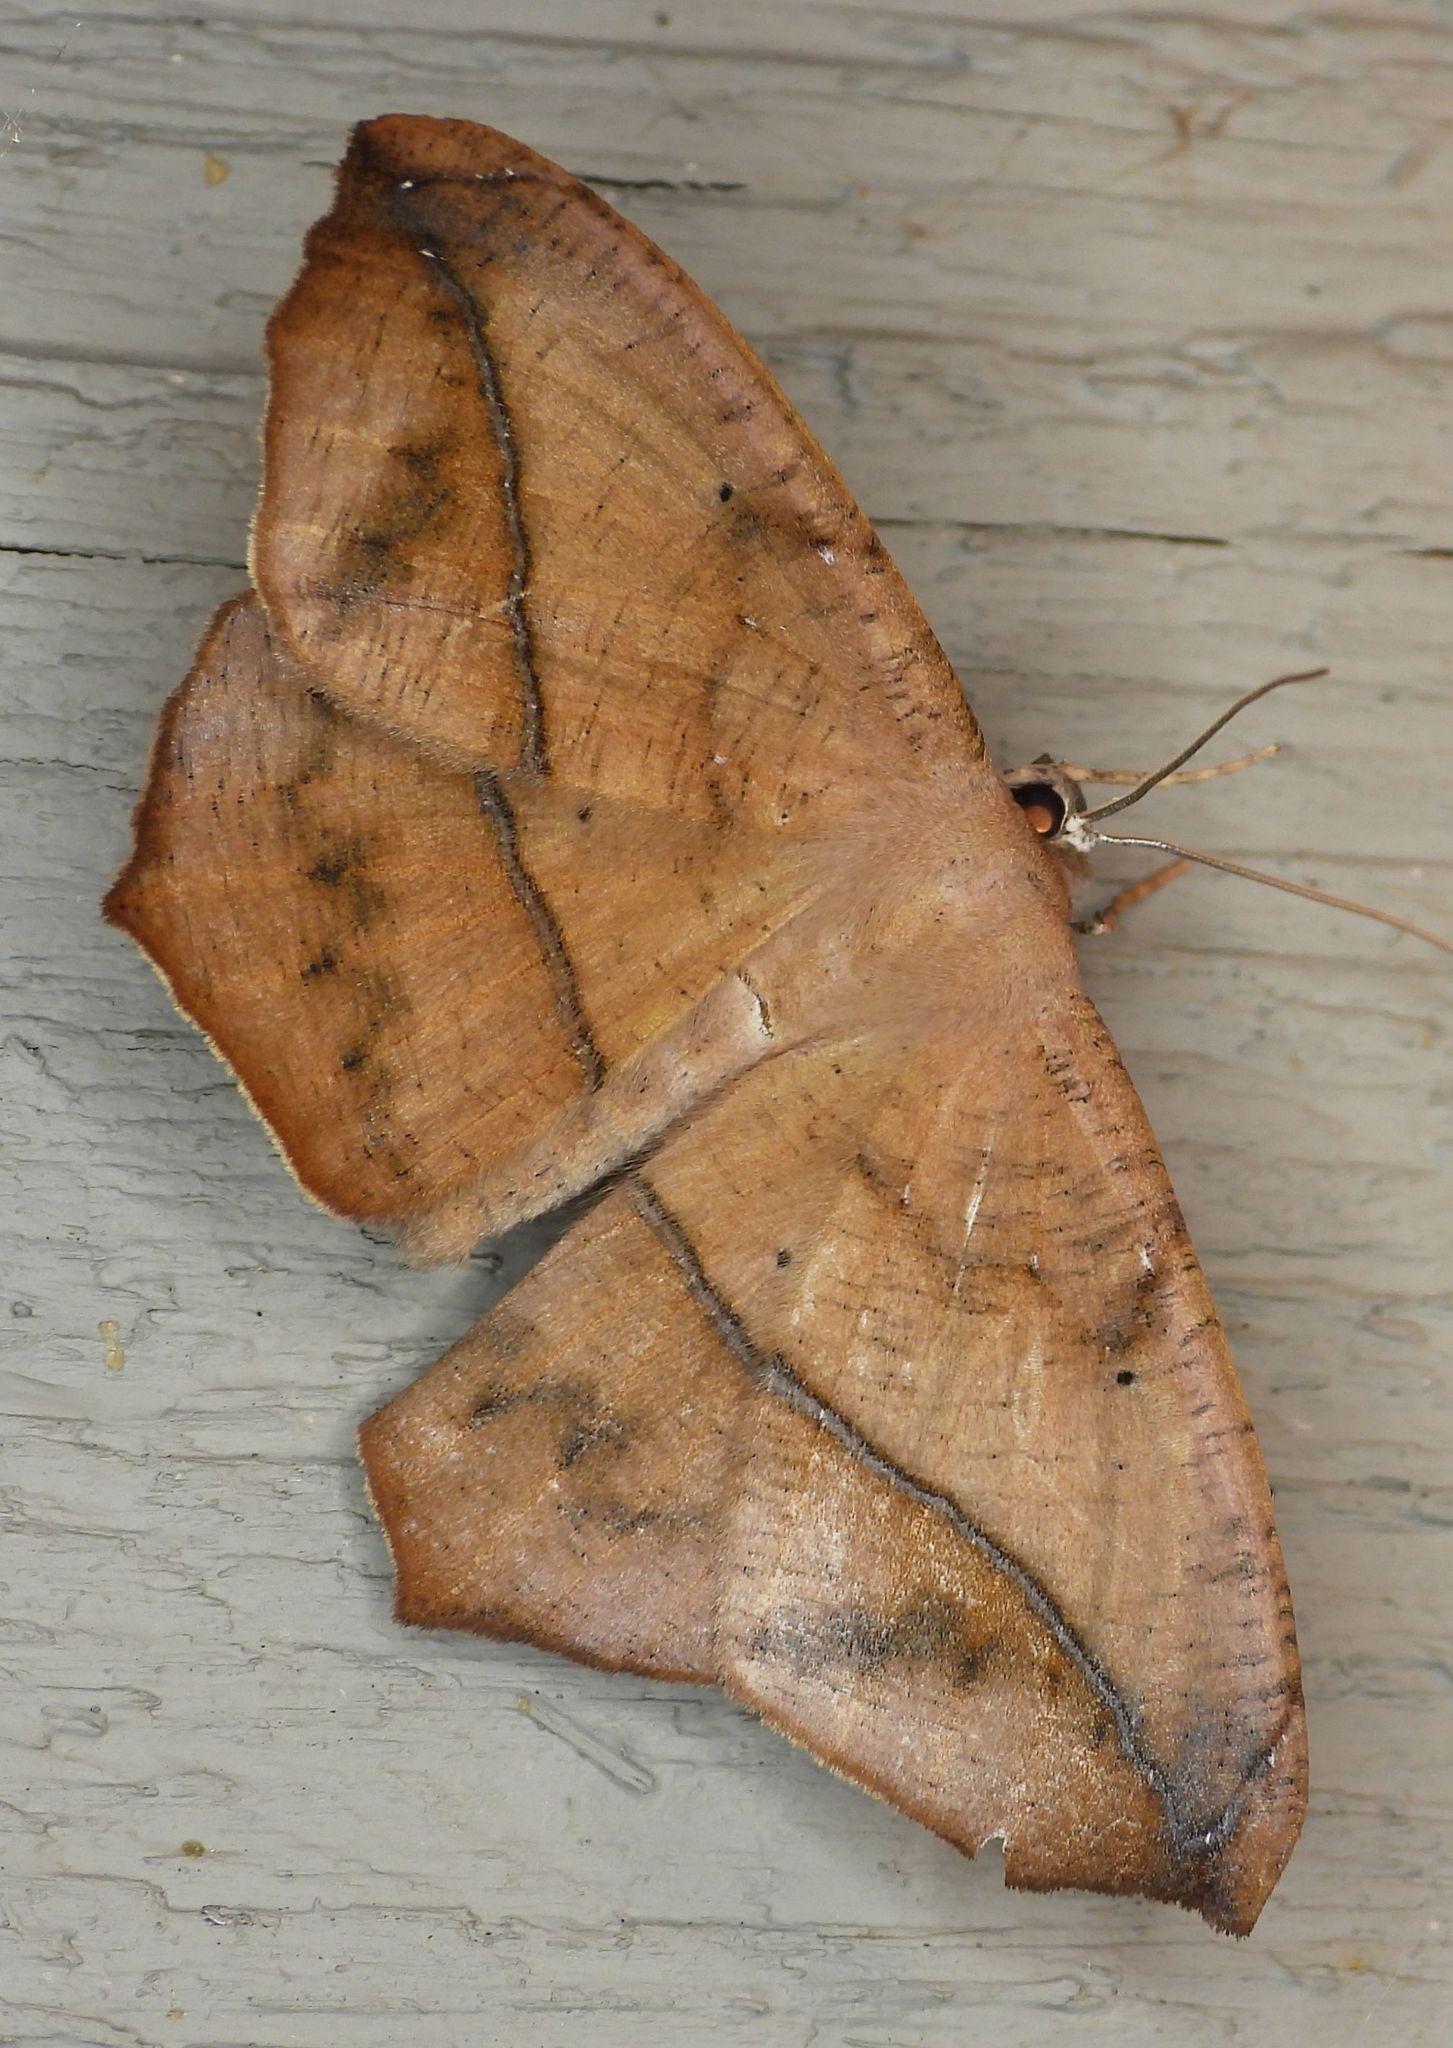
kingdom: Animalia
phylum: Arthropoda
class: Insecta
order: Lepidoptera
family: Geometridae
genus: Prochoerodes
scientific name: Prochoerodes lineola
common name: Large maple spanworm
